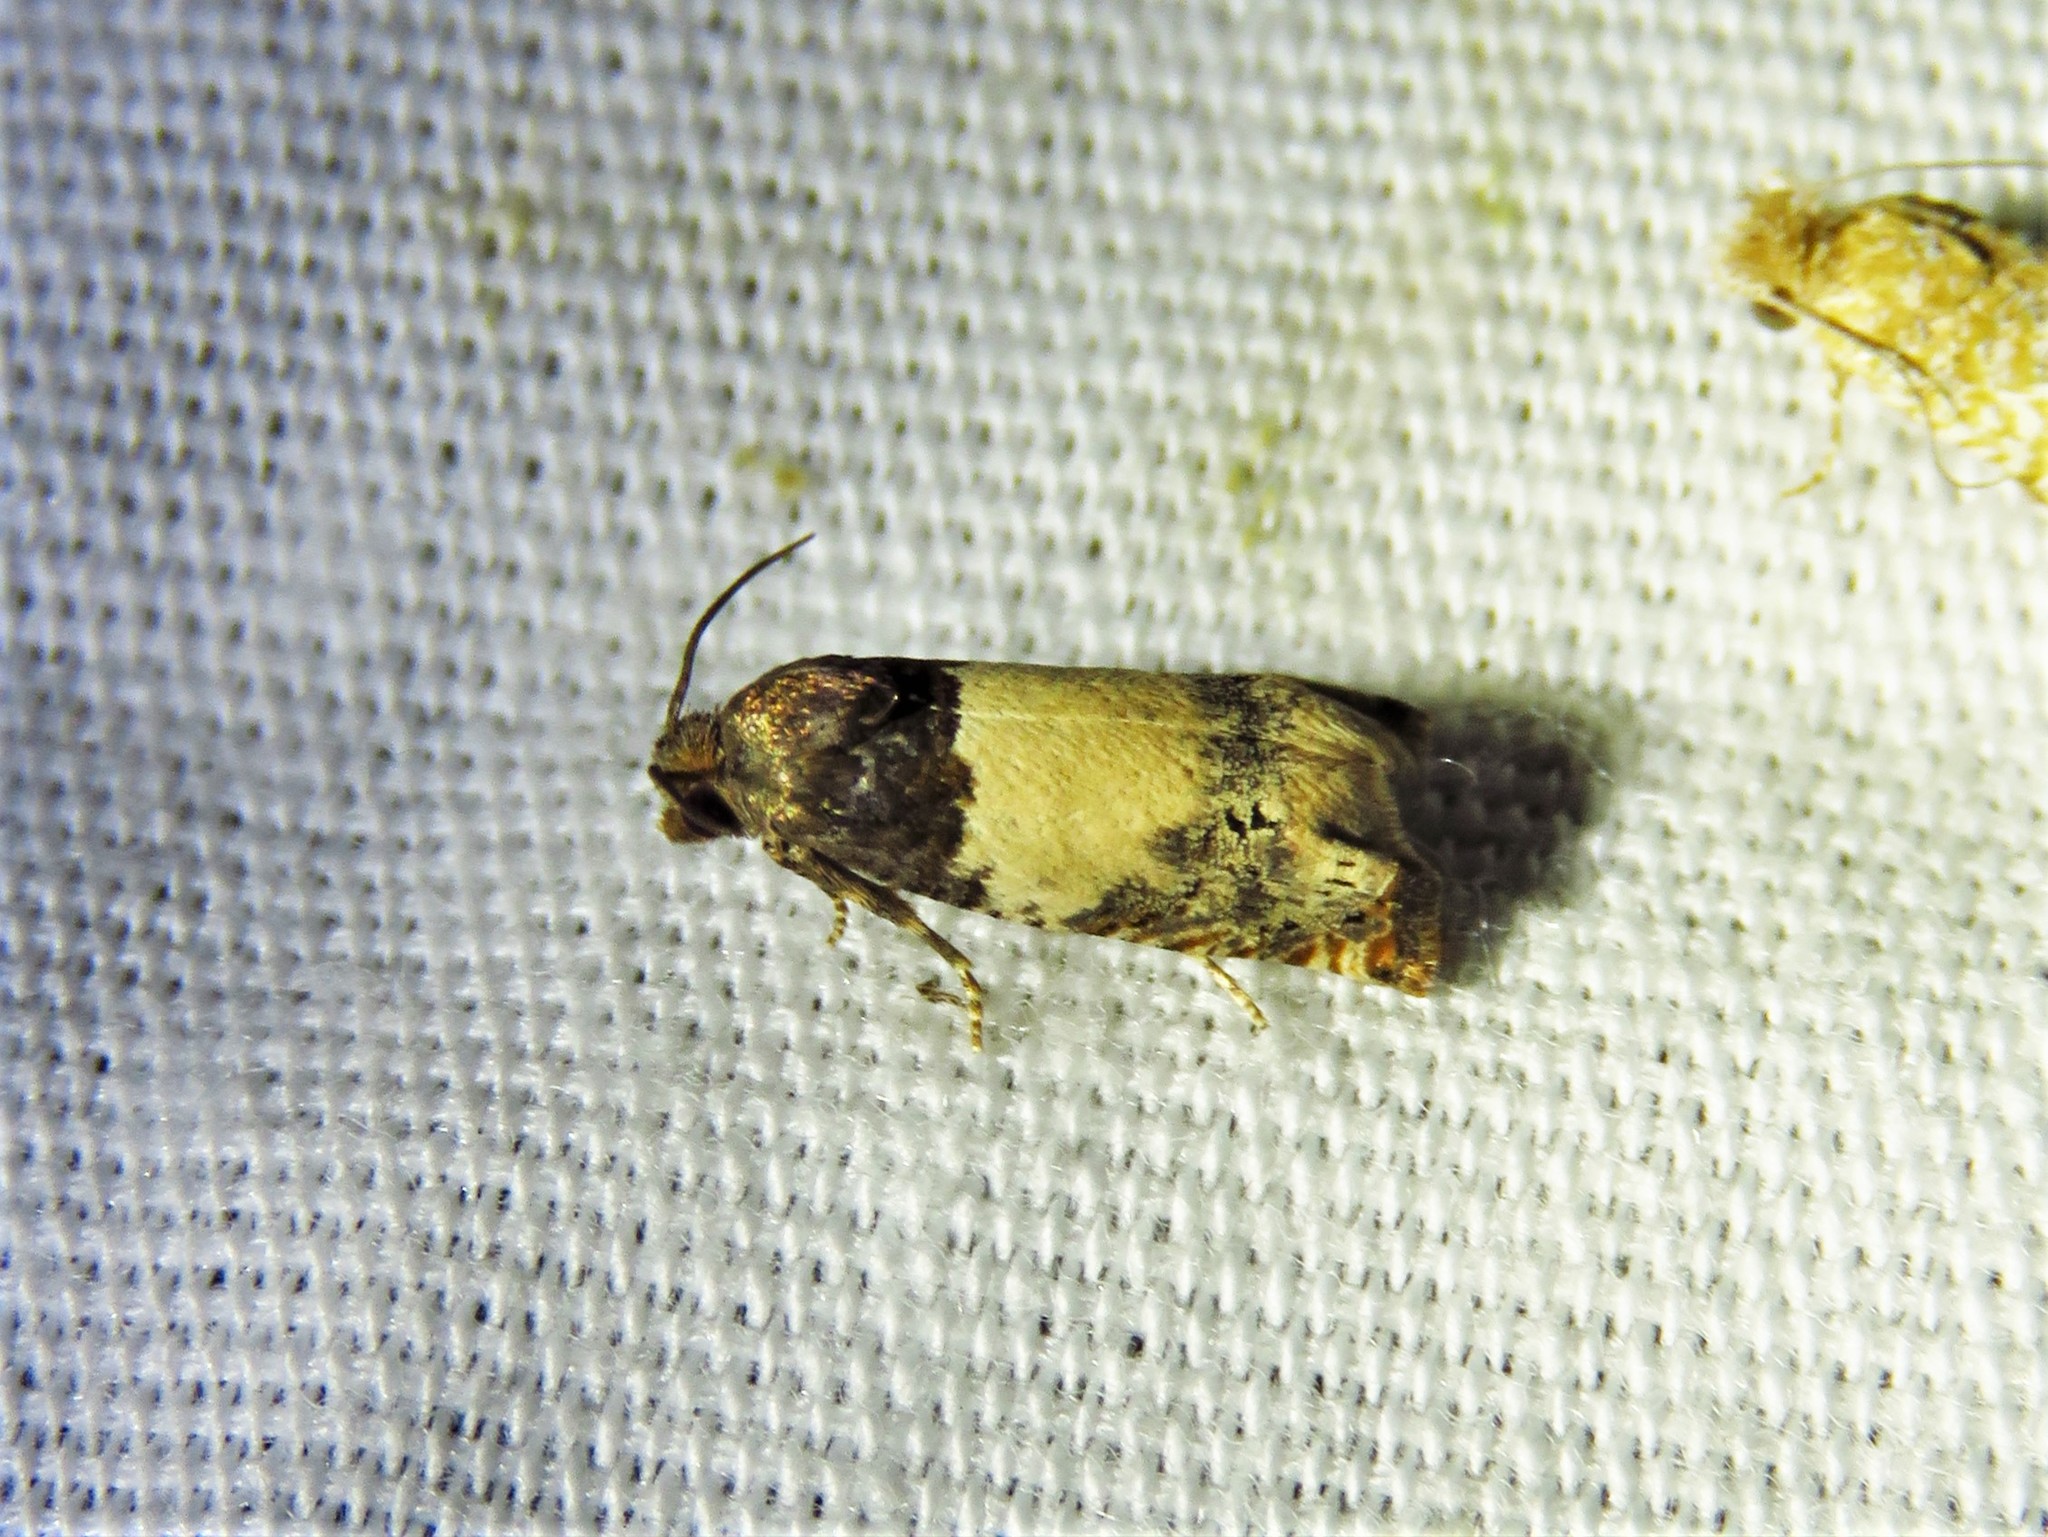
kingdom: Animalia
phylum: Arthropoda
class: Insecta
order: Lepidoptera
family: Tortricidae
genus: Epiblema
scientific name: Epiblema scudderiana
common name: Goldenrod gall moth
